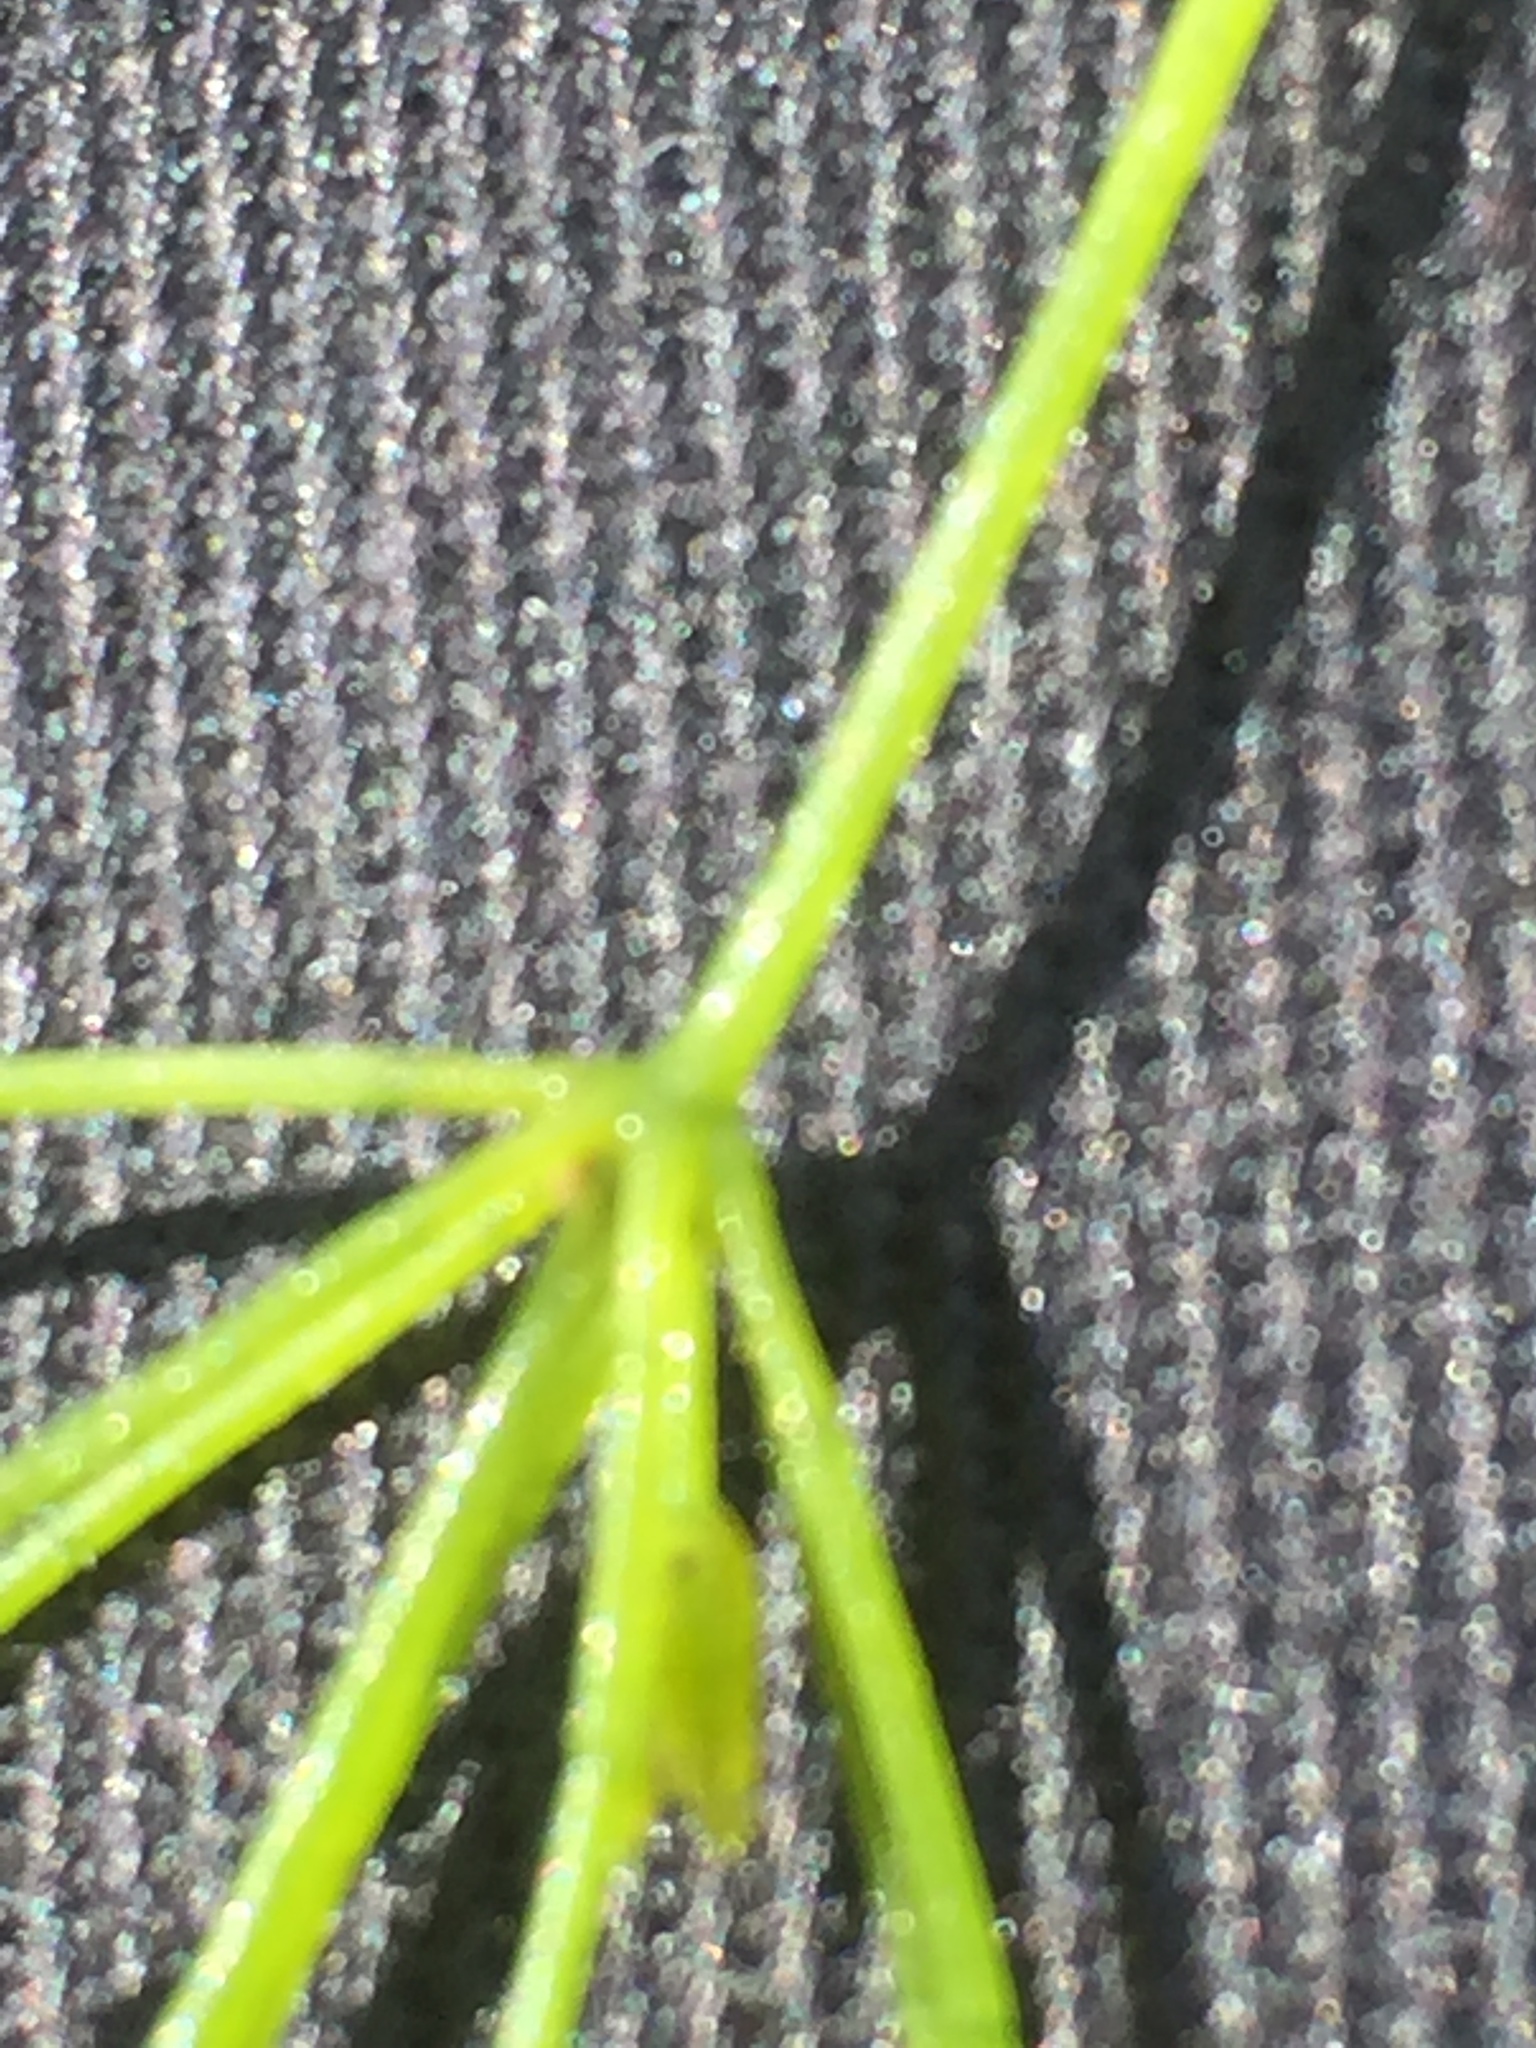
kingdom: Plantae
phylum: Charophyta
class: Charophyceae
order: Charales
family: Characeae
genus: Chara
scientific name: Chara globularis
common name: Fragile stonewort
